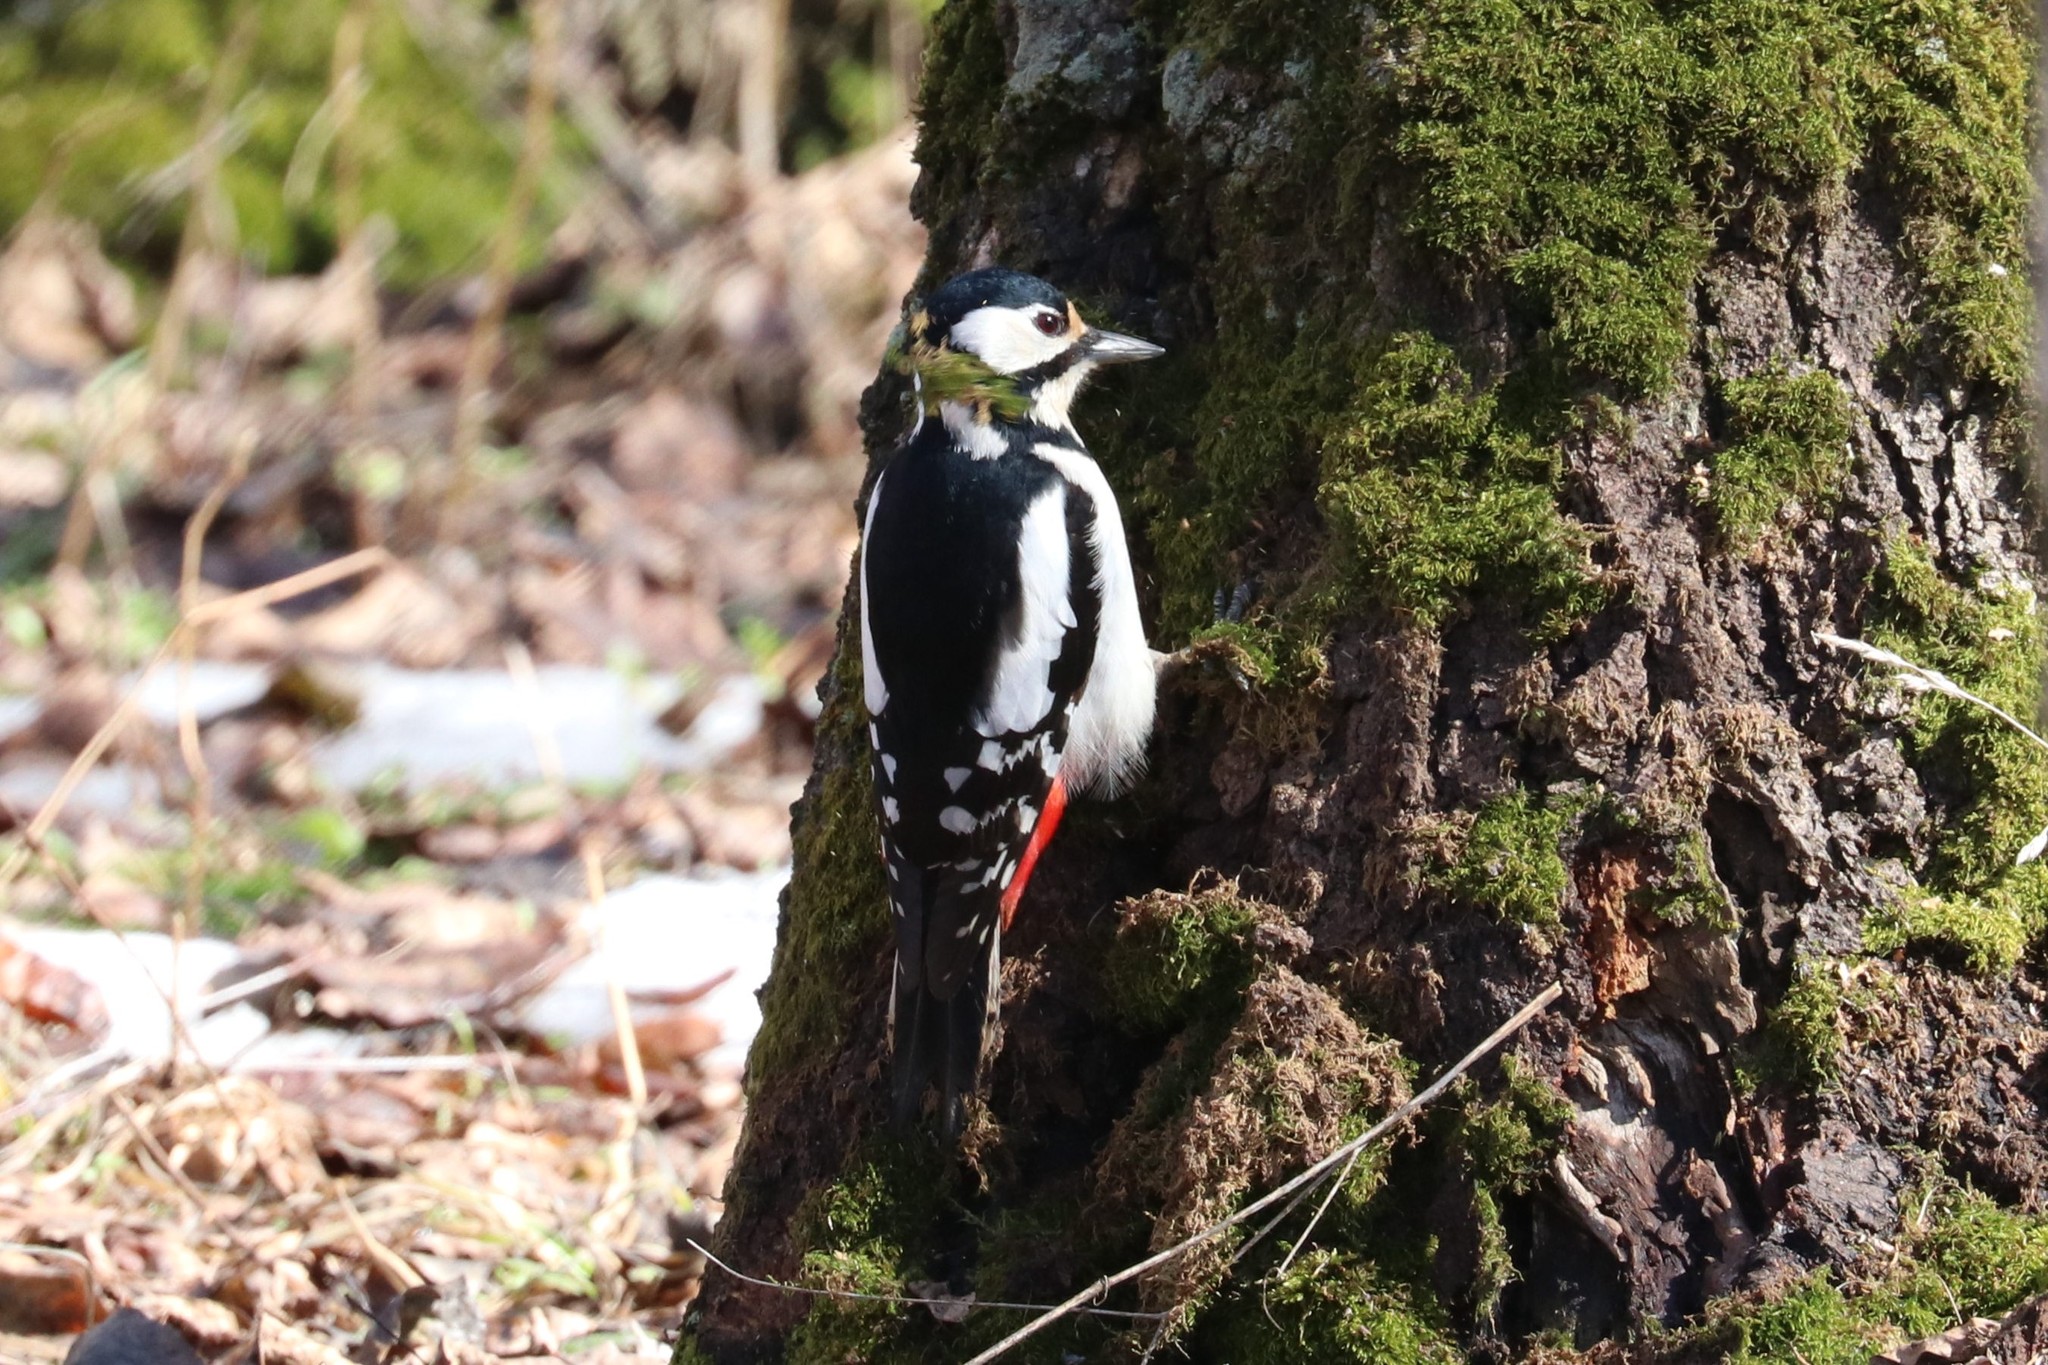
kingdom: Animalia
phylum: Chordata
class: Aves
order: Piciformes
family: Picidae
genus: Dendrocopos
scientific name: Dendrocopos major
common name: Great spotted woodpecker
